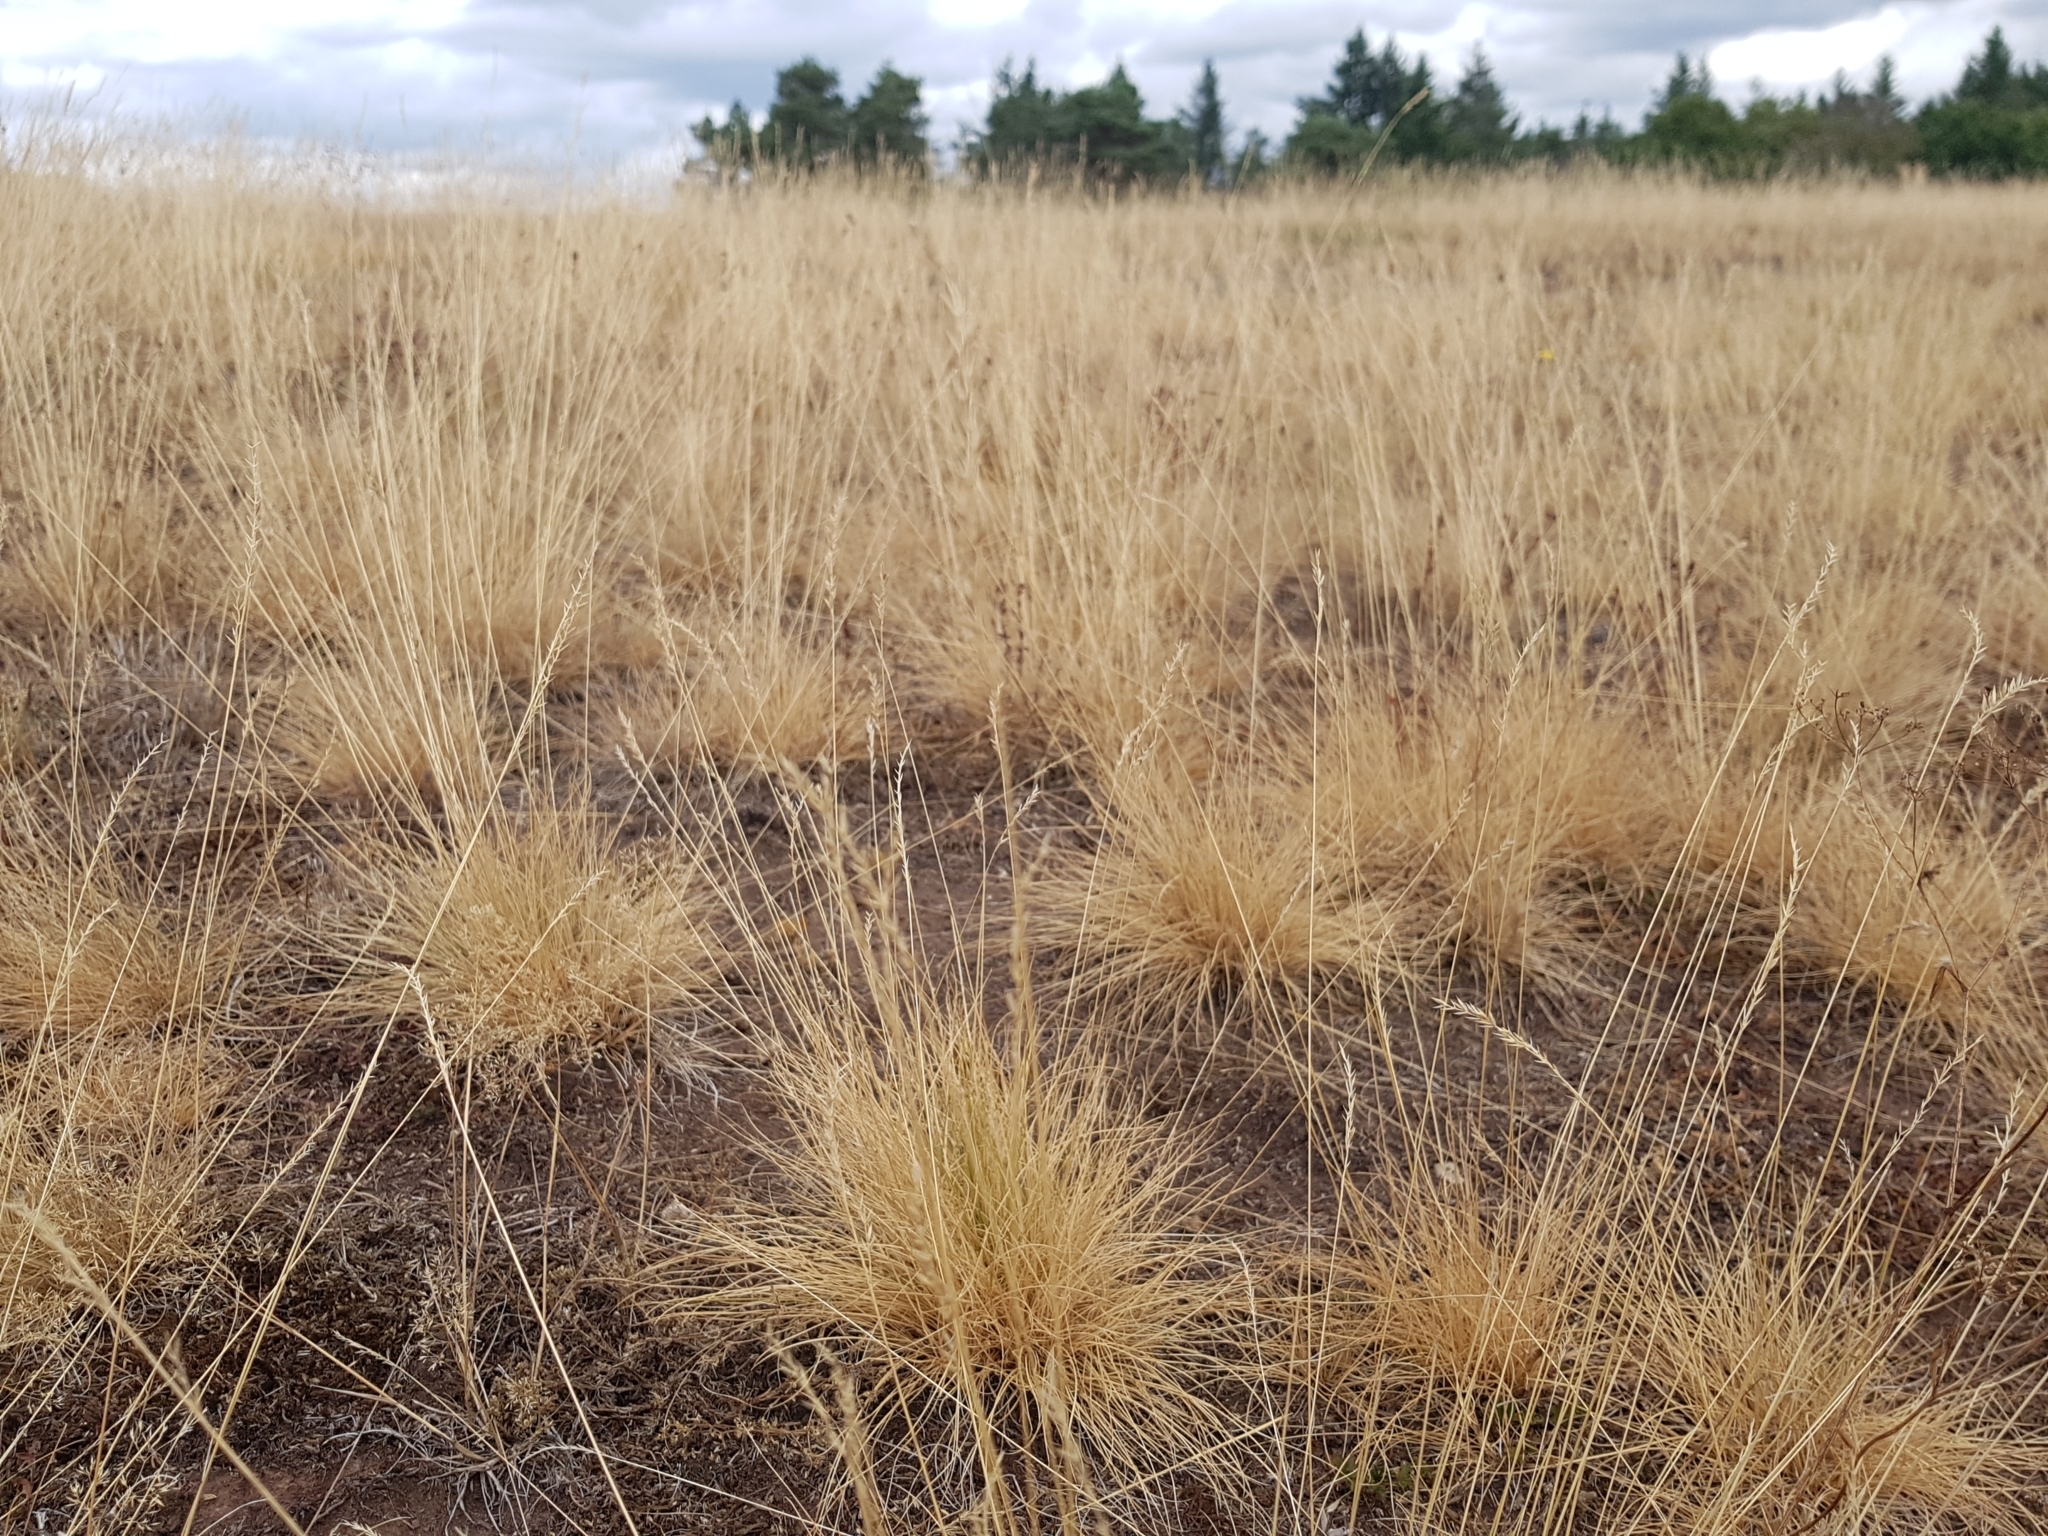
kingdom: Plantae
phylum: Tracheophyta
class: Liliopsida
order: Poales
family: Poaceae
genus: Nardus
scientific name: Nardus stricta
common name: Mat-grass
